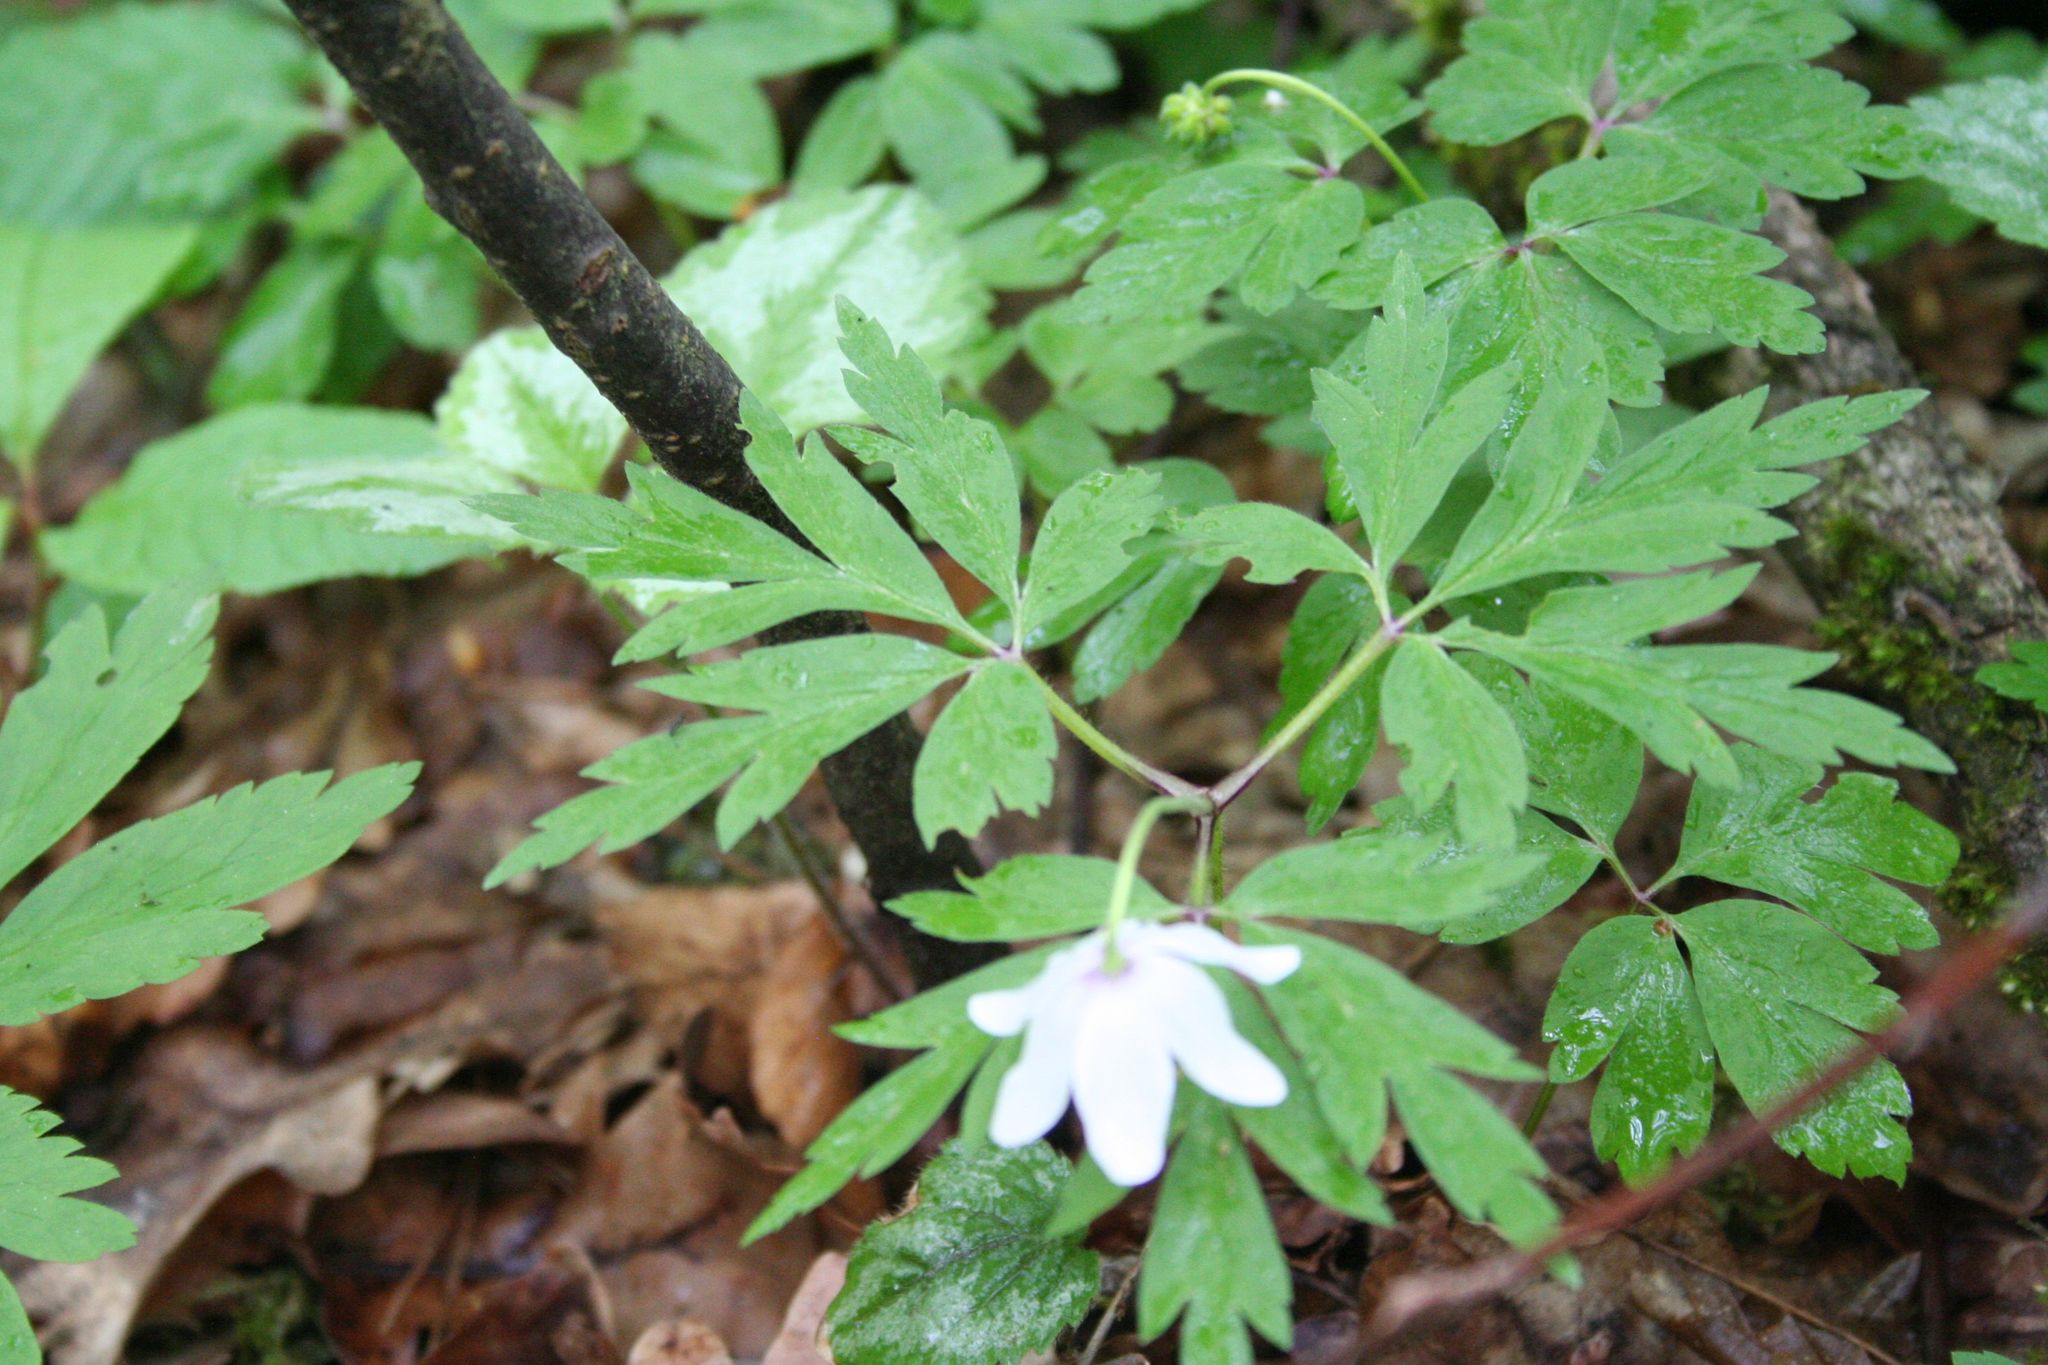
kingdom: Plantae
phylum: Tracheophyta
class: Magnoliopsida
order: Ranunculales
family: Ranunculaceae
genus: Anemone
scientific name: Anemone nemorosa
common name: Wood anemone
